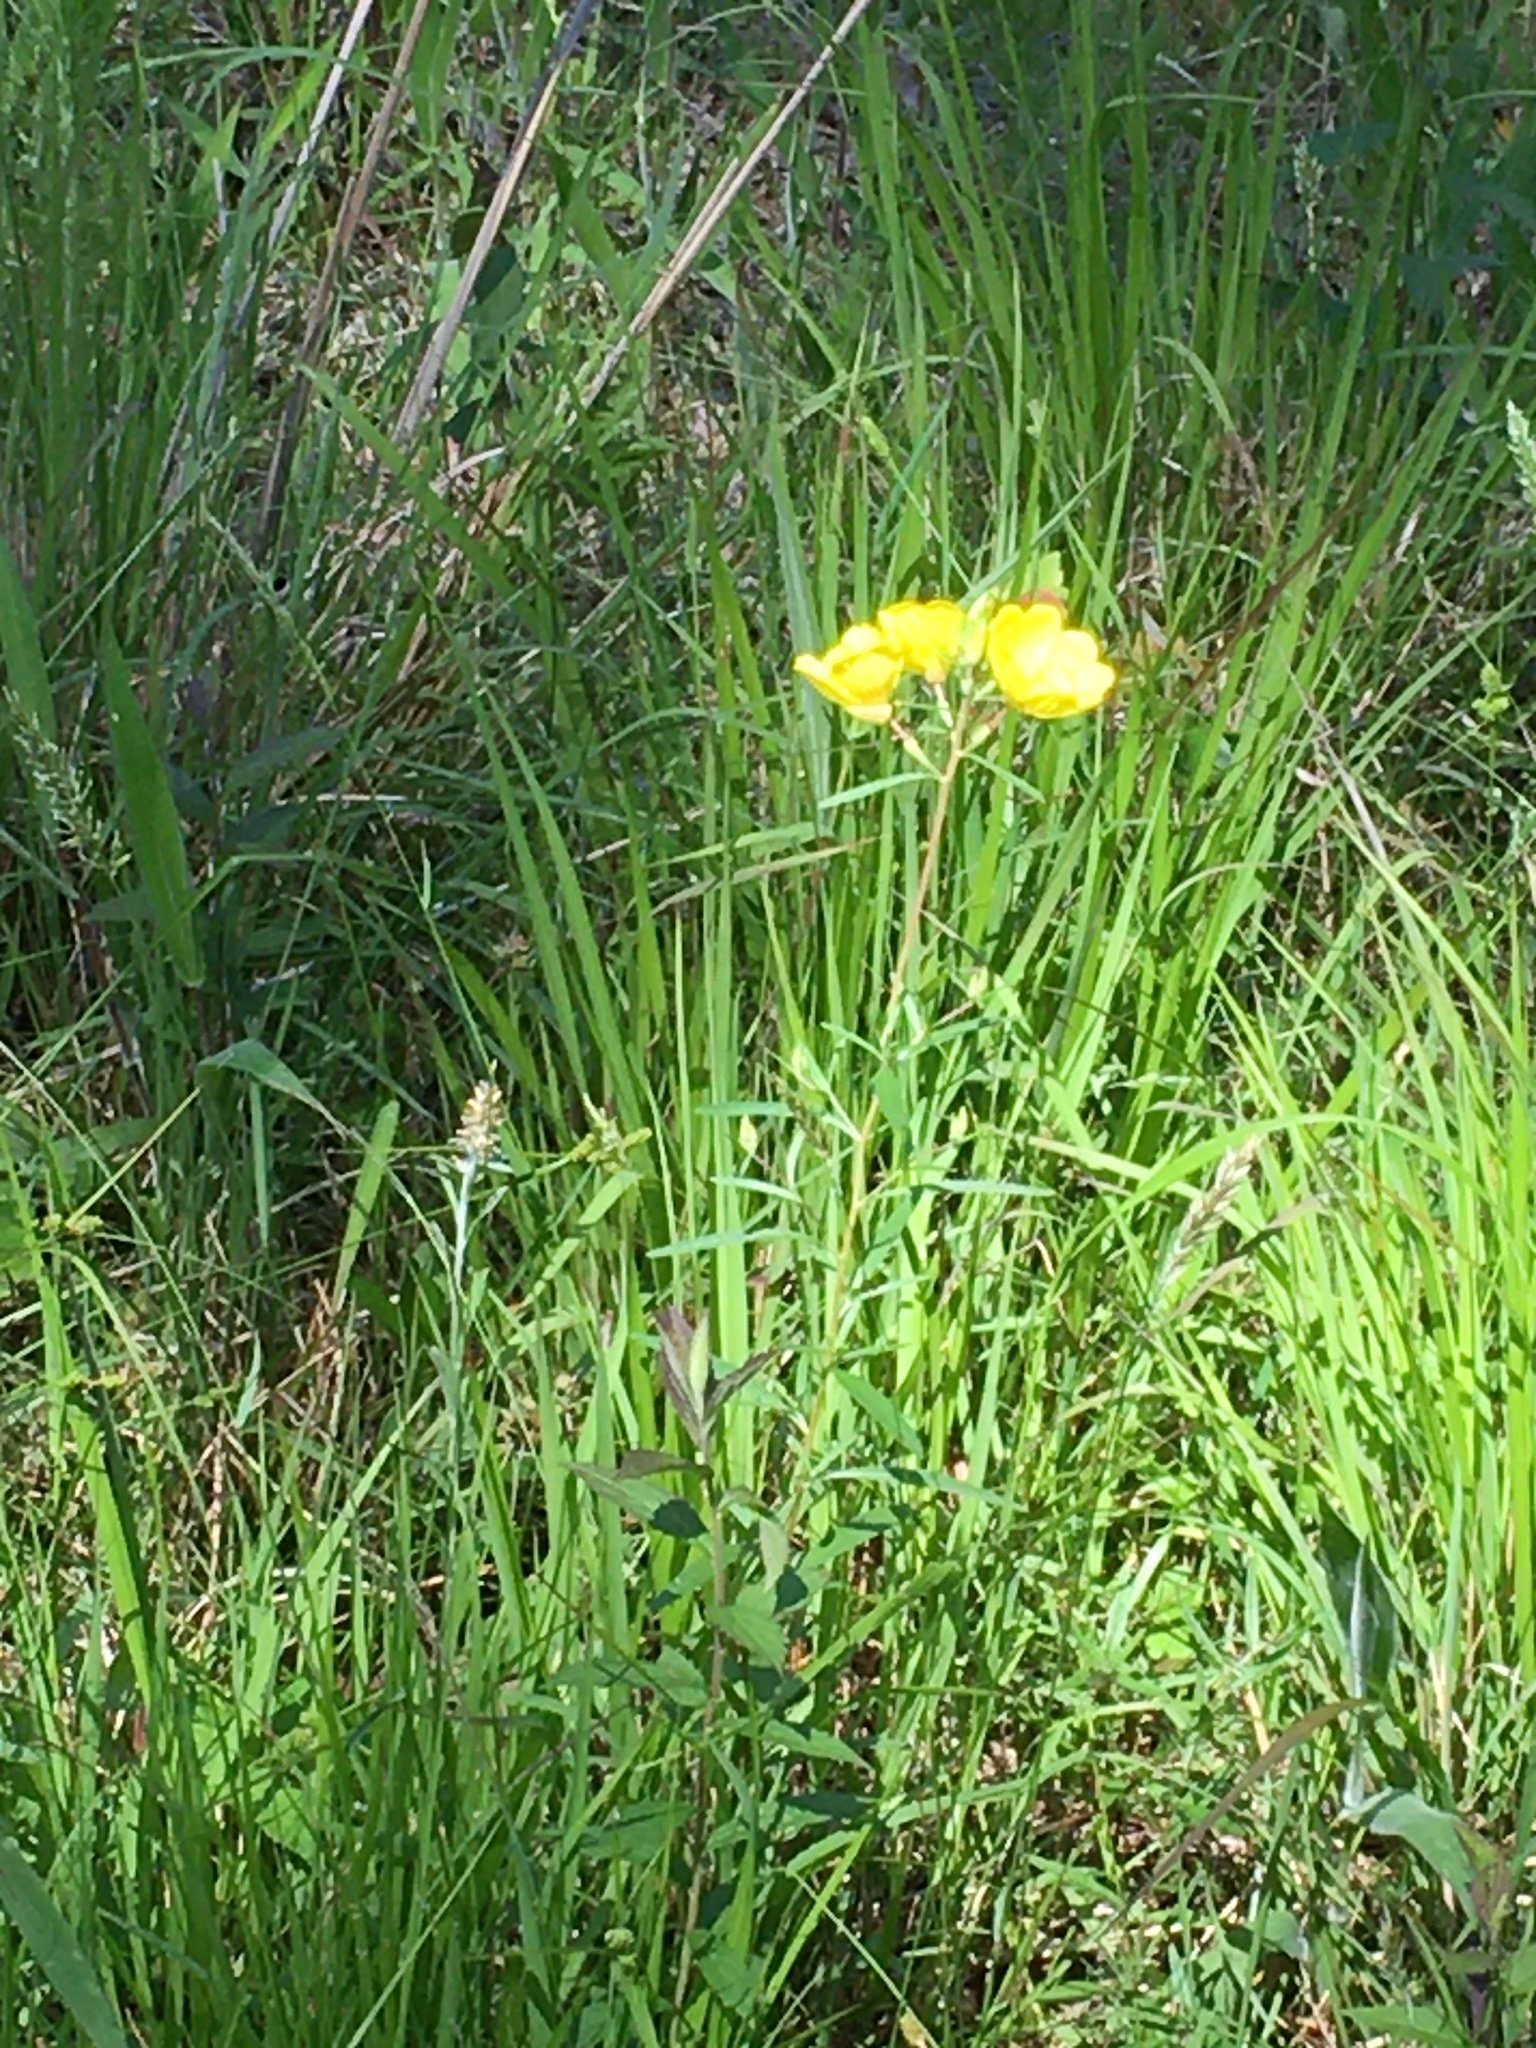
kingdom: Plantae
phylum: Tracheophyta
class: Magnoliopsida
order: Myrtales
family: Onagraceae
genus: Oenothera
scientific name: Oenothera fruticosa
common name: Southern sundrops
